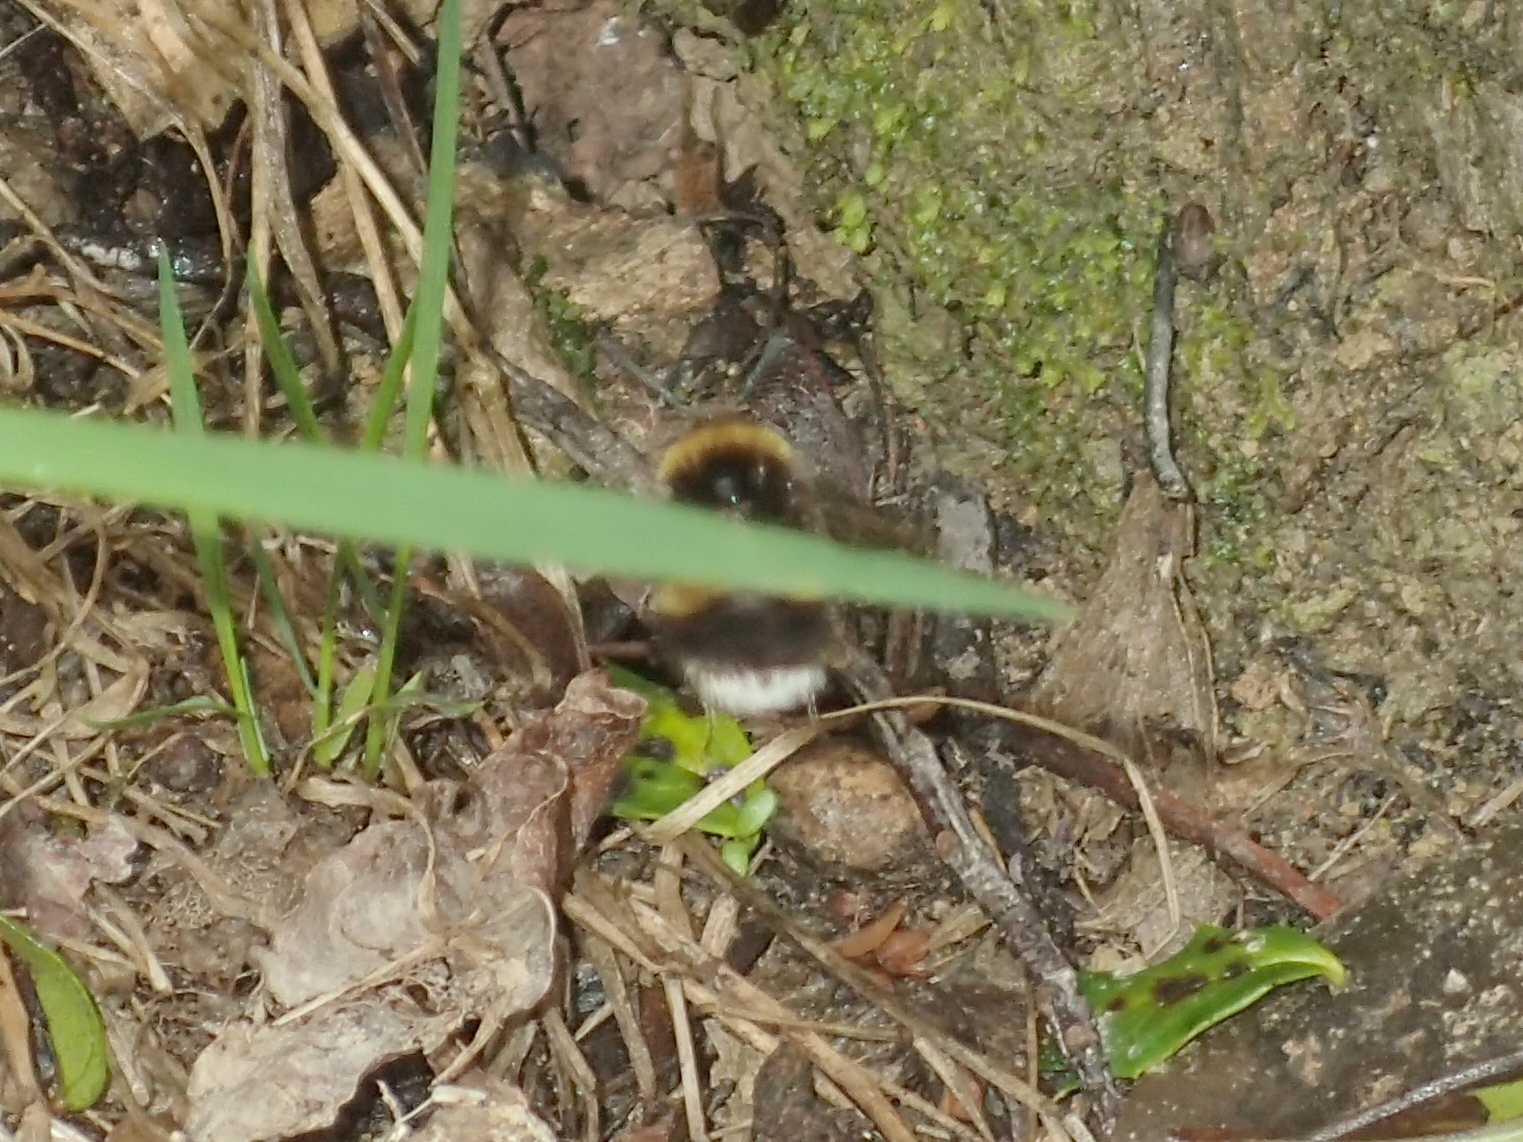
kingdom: Animalia
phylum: Arthropoda
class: Insecta
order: Hymenoptera
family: Apidae
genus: Bombus
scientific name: Bombus terrestris
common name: Buff-tailed bumblebee
